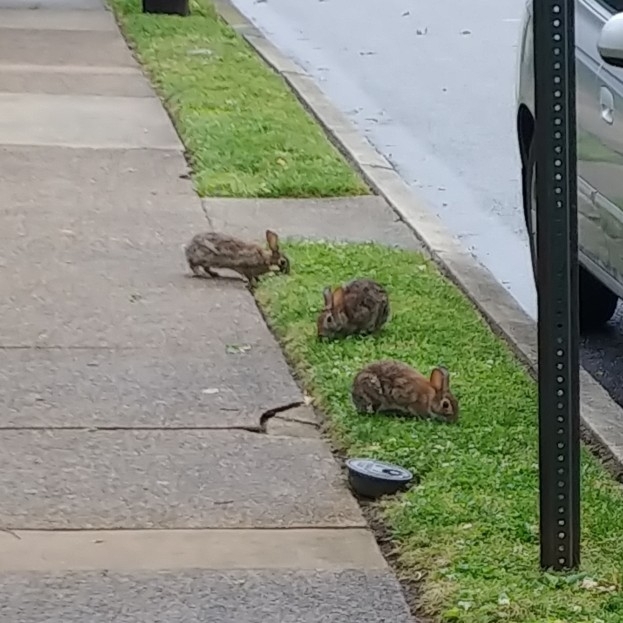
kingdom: Animalia
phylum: Chordata
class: Mammalia
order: Lagomorpha
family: Leporidae
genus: Sylvilagus
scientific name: Sylvilagus floridanus
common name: Eastern cottontail
